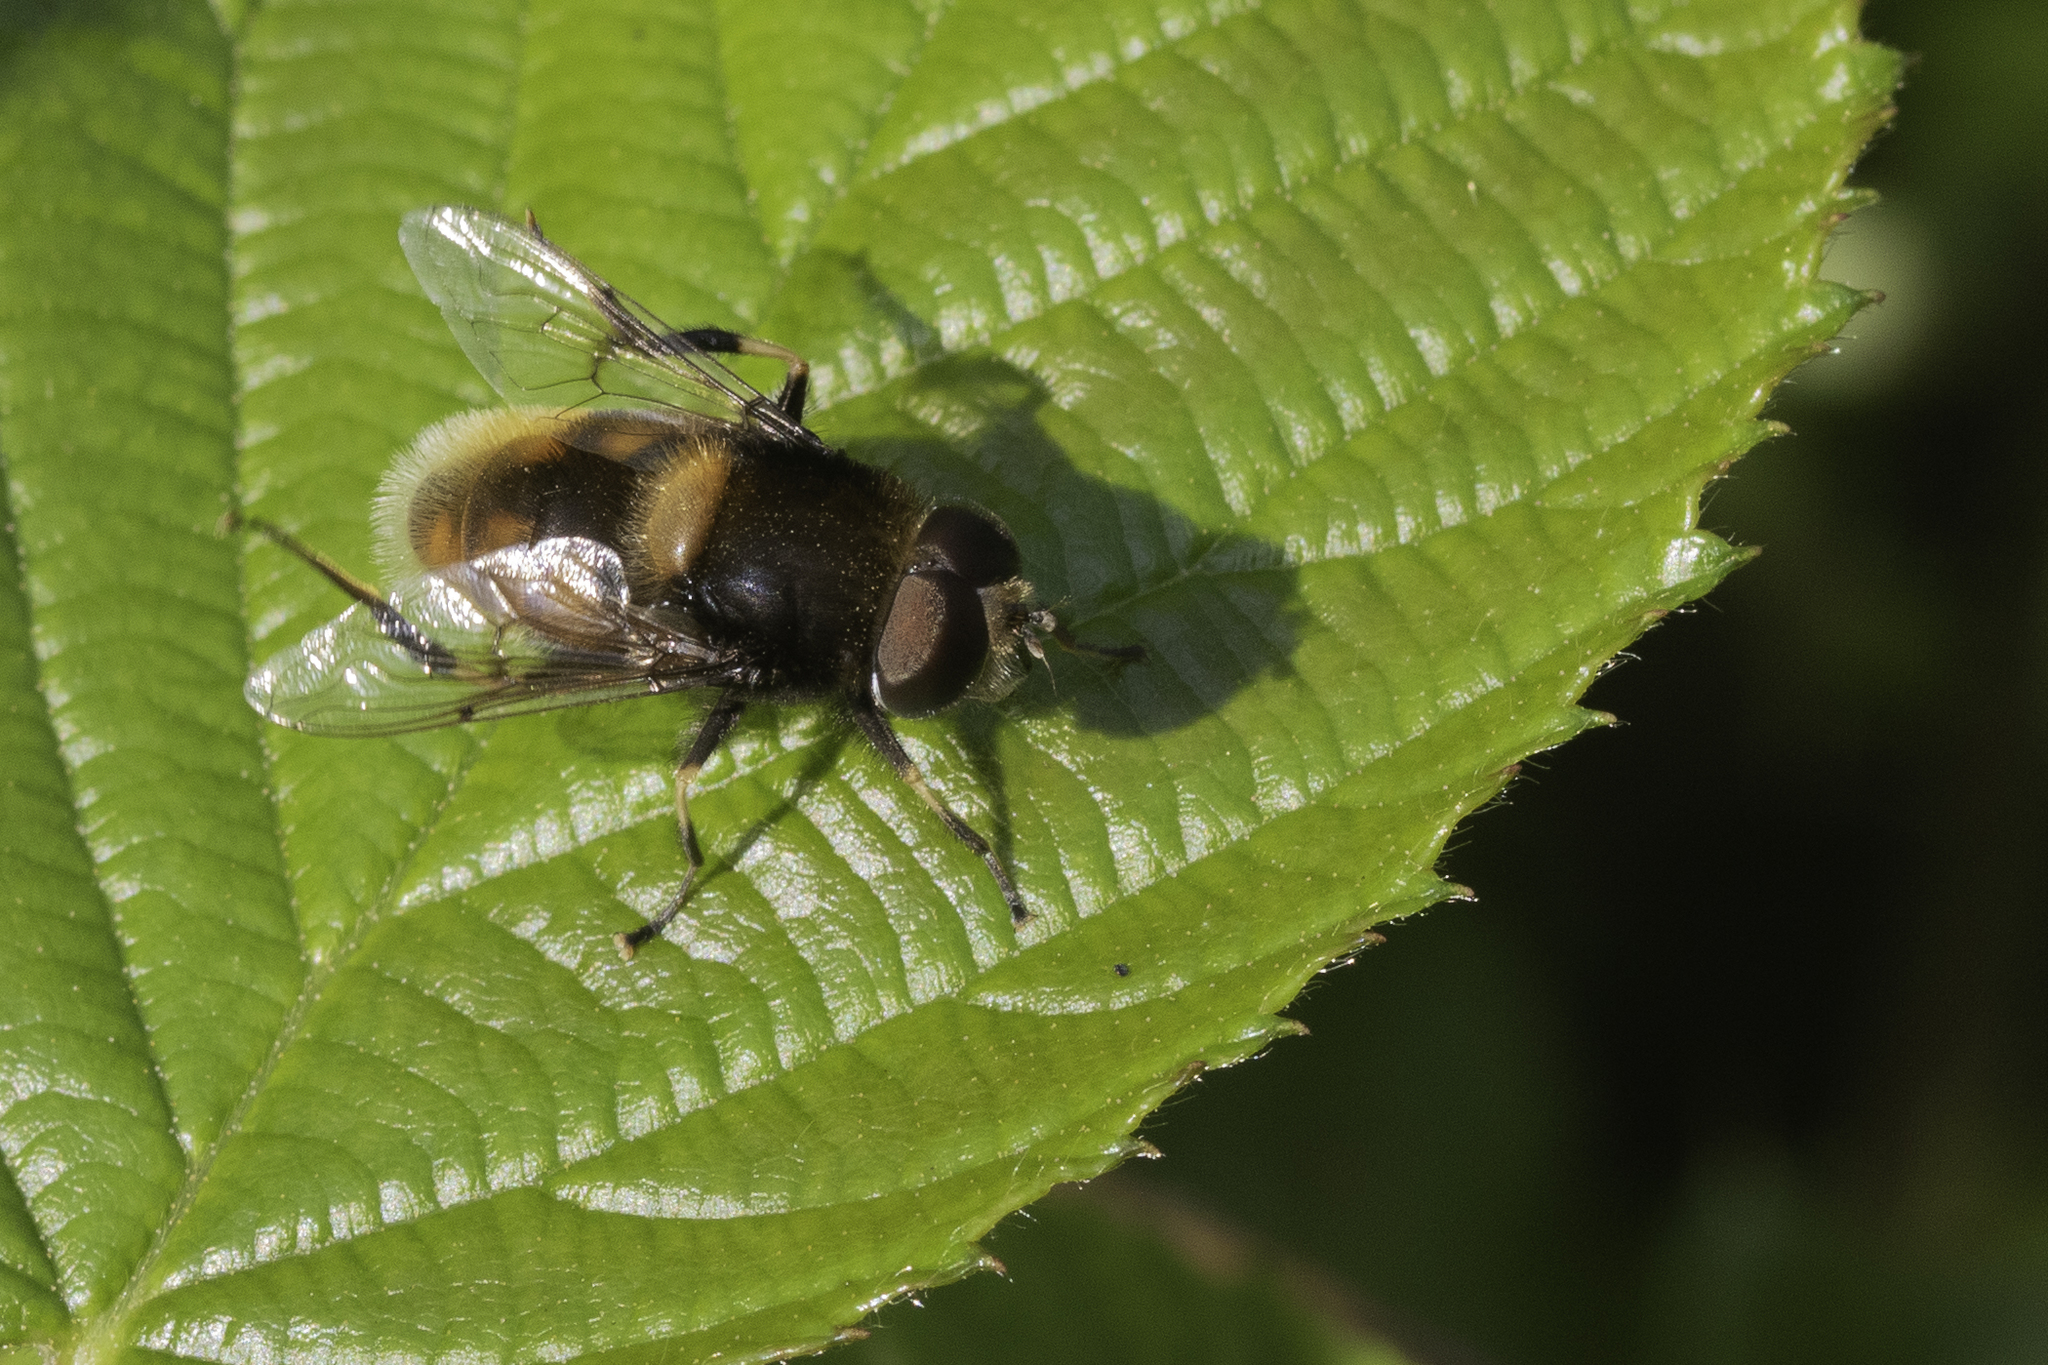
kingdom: Animalia
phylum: Arthropoda
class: Insecta
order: Diptera
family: Syrphidae
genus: Eristalis
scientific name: Eristalis intricaria
